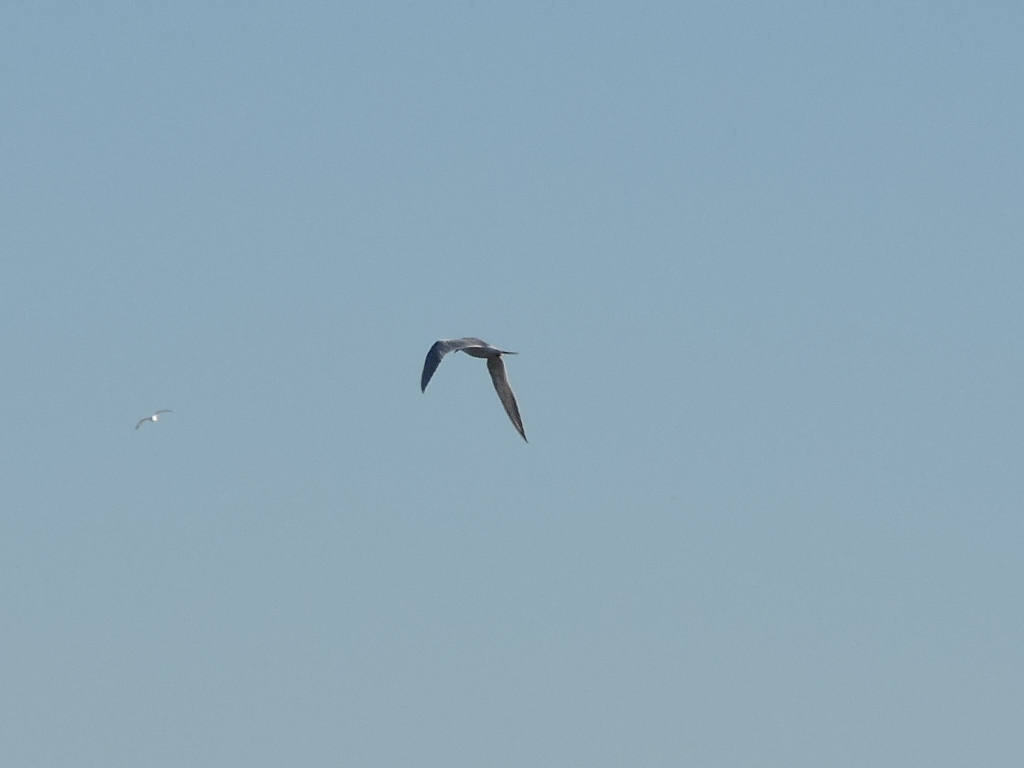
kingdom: Animalia
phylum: Chordata
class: Aves
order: Charadriiformes
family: Laridae
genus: Sterna
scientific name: Sterna forsteri
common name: Forster's tern
